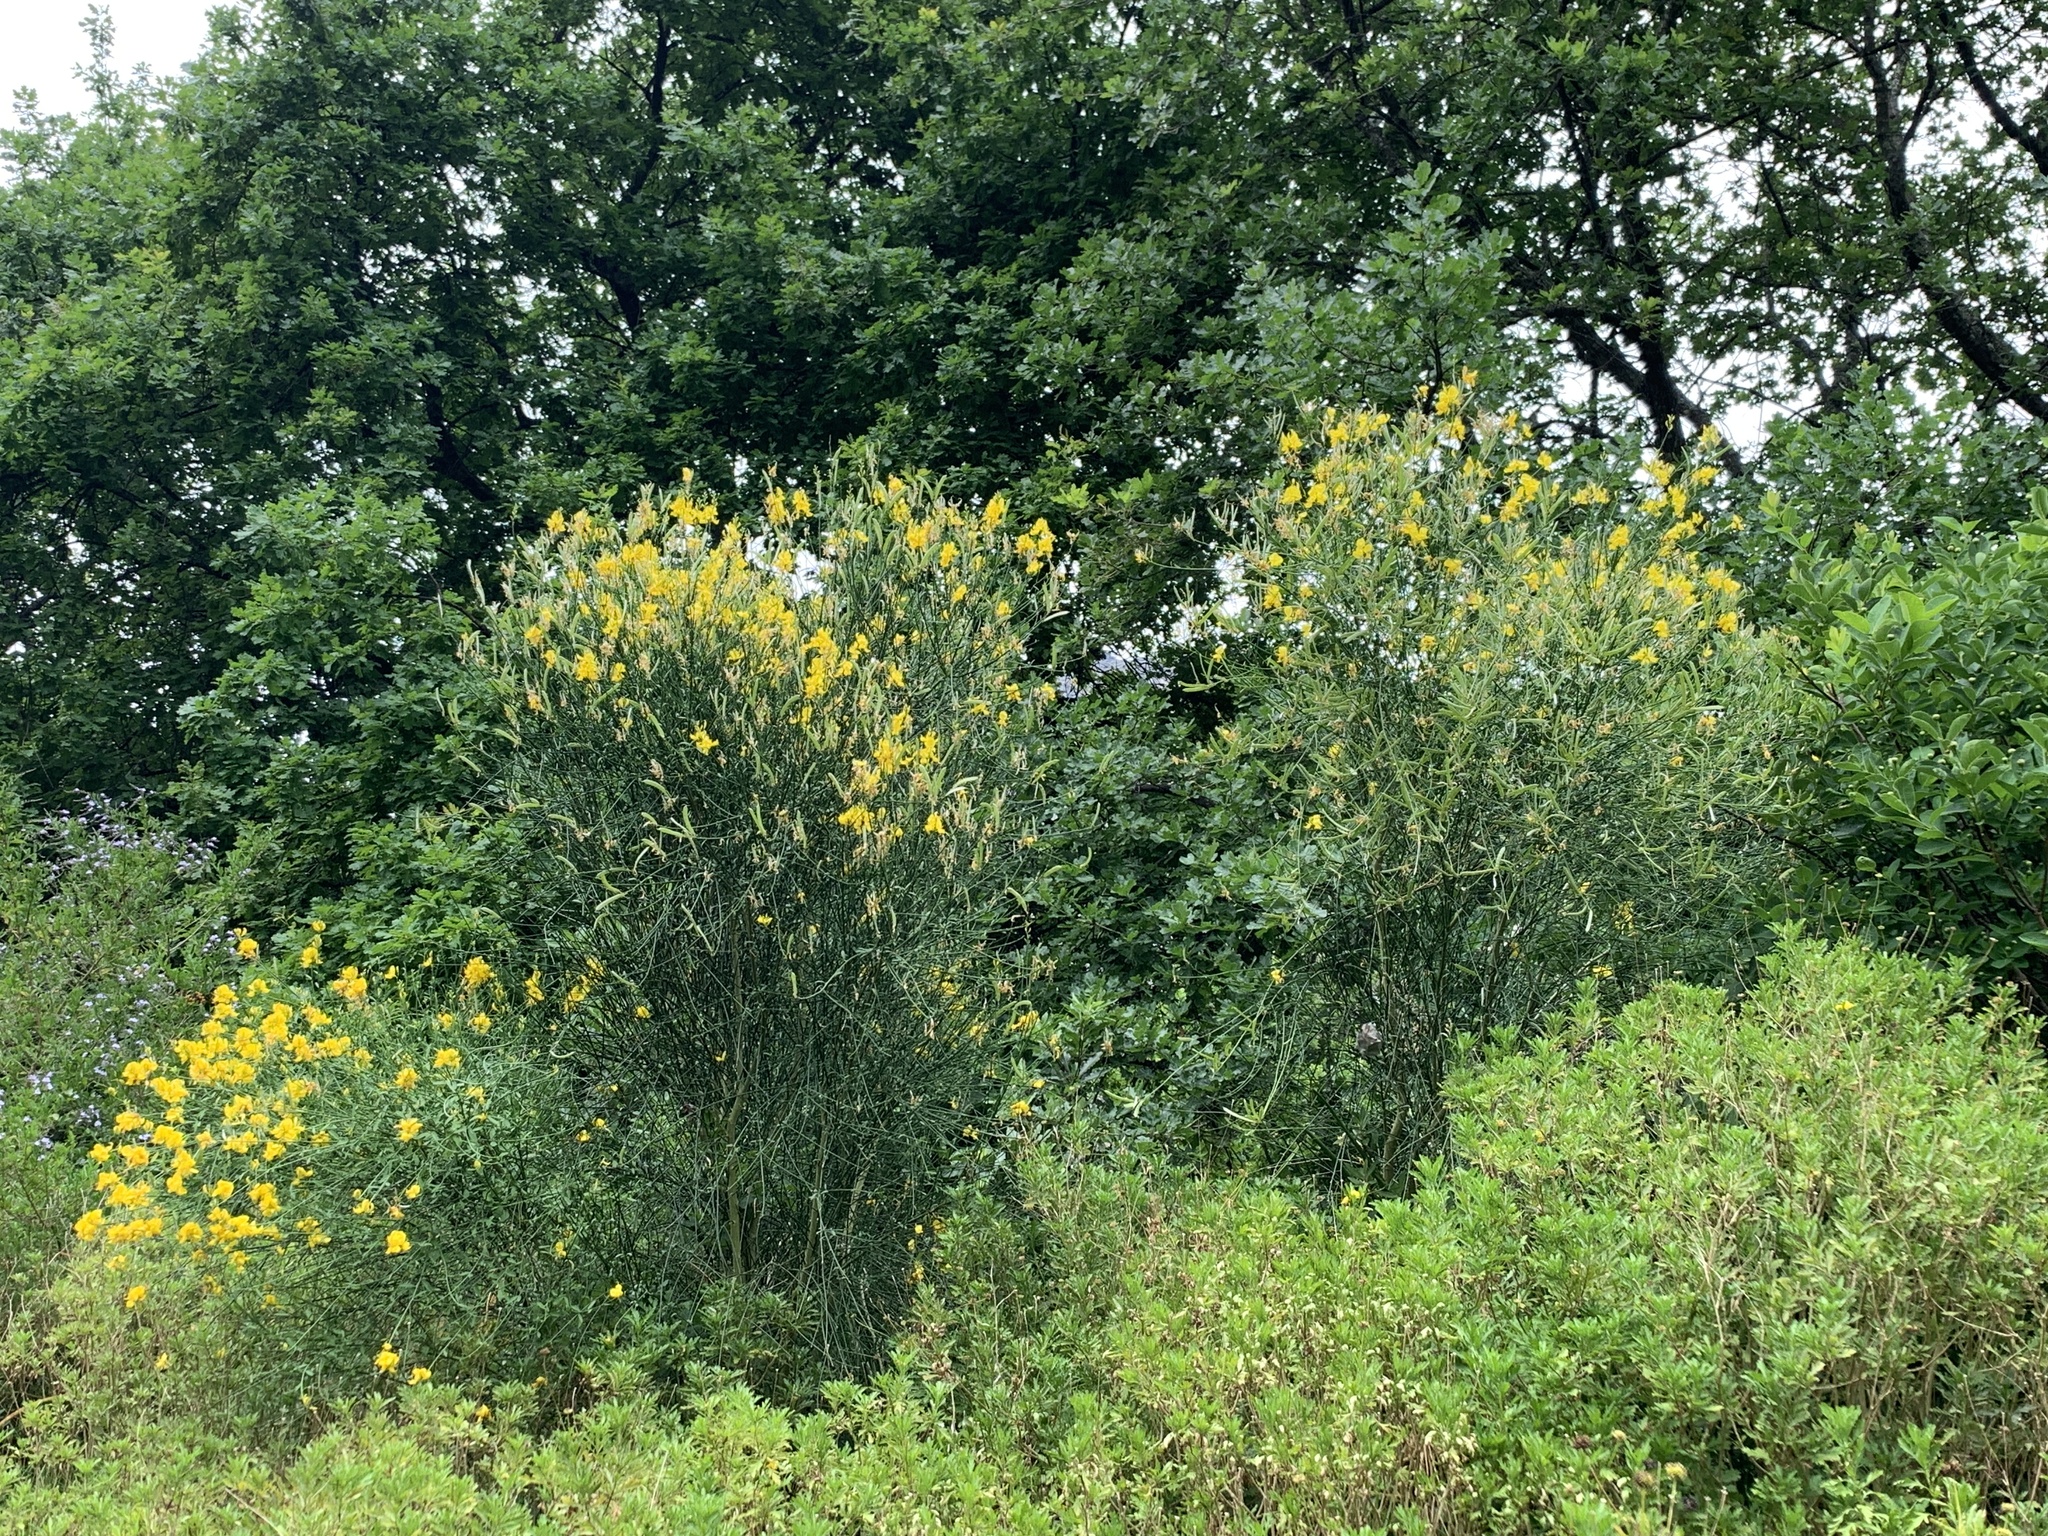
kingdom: Plantae
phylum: Tracheophyta
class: Magnoliopsida
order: Fabales
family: Fabaceae
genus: Spartium
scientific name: Spartium junceum
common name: Spanish broom
